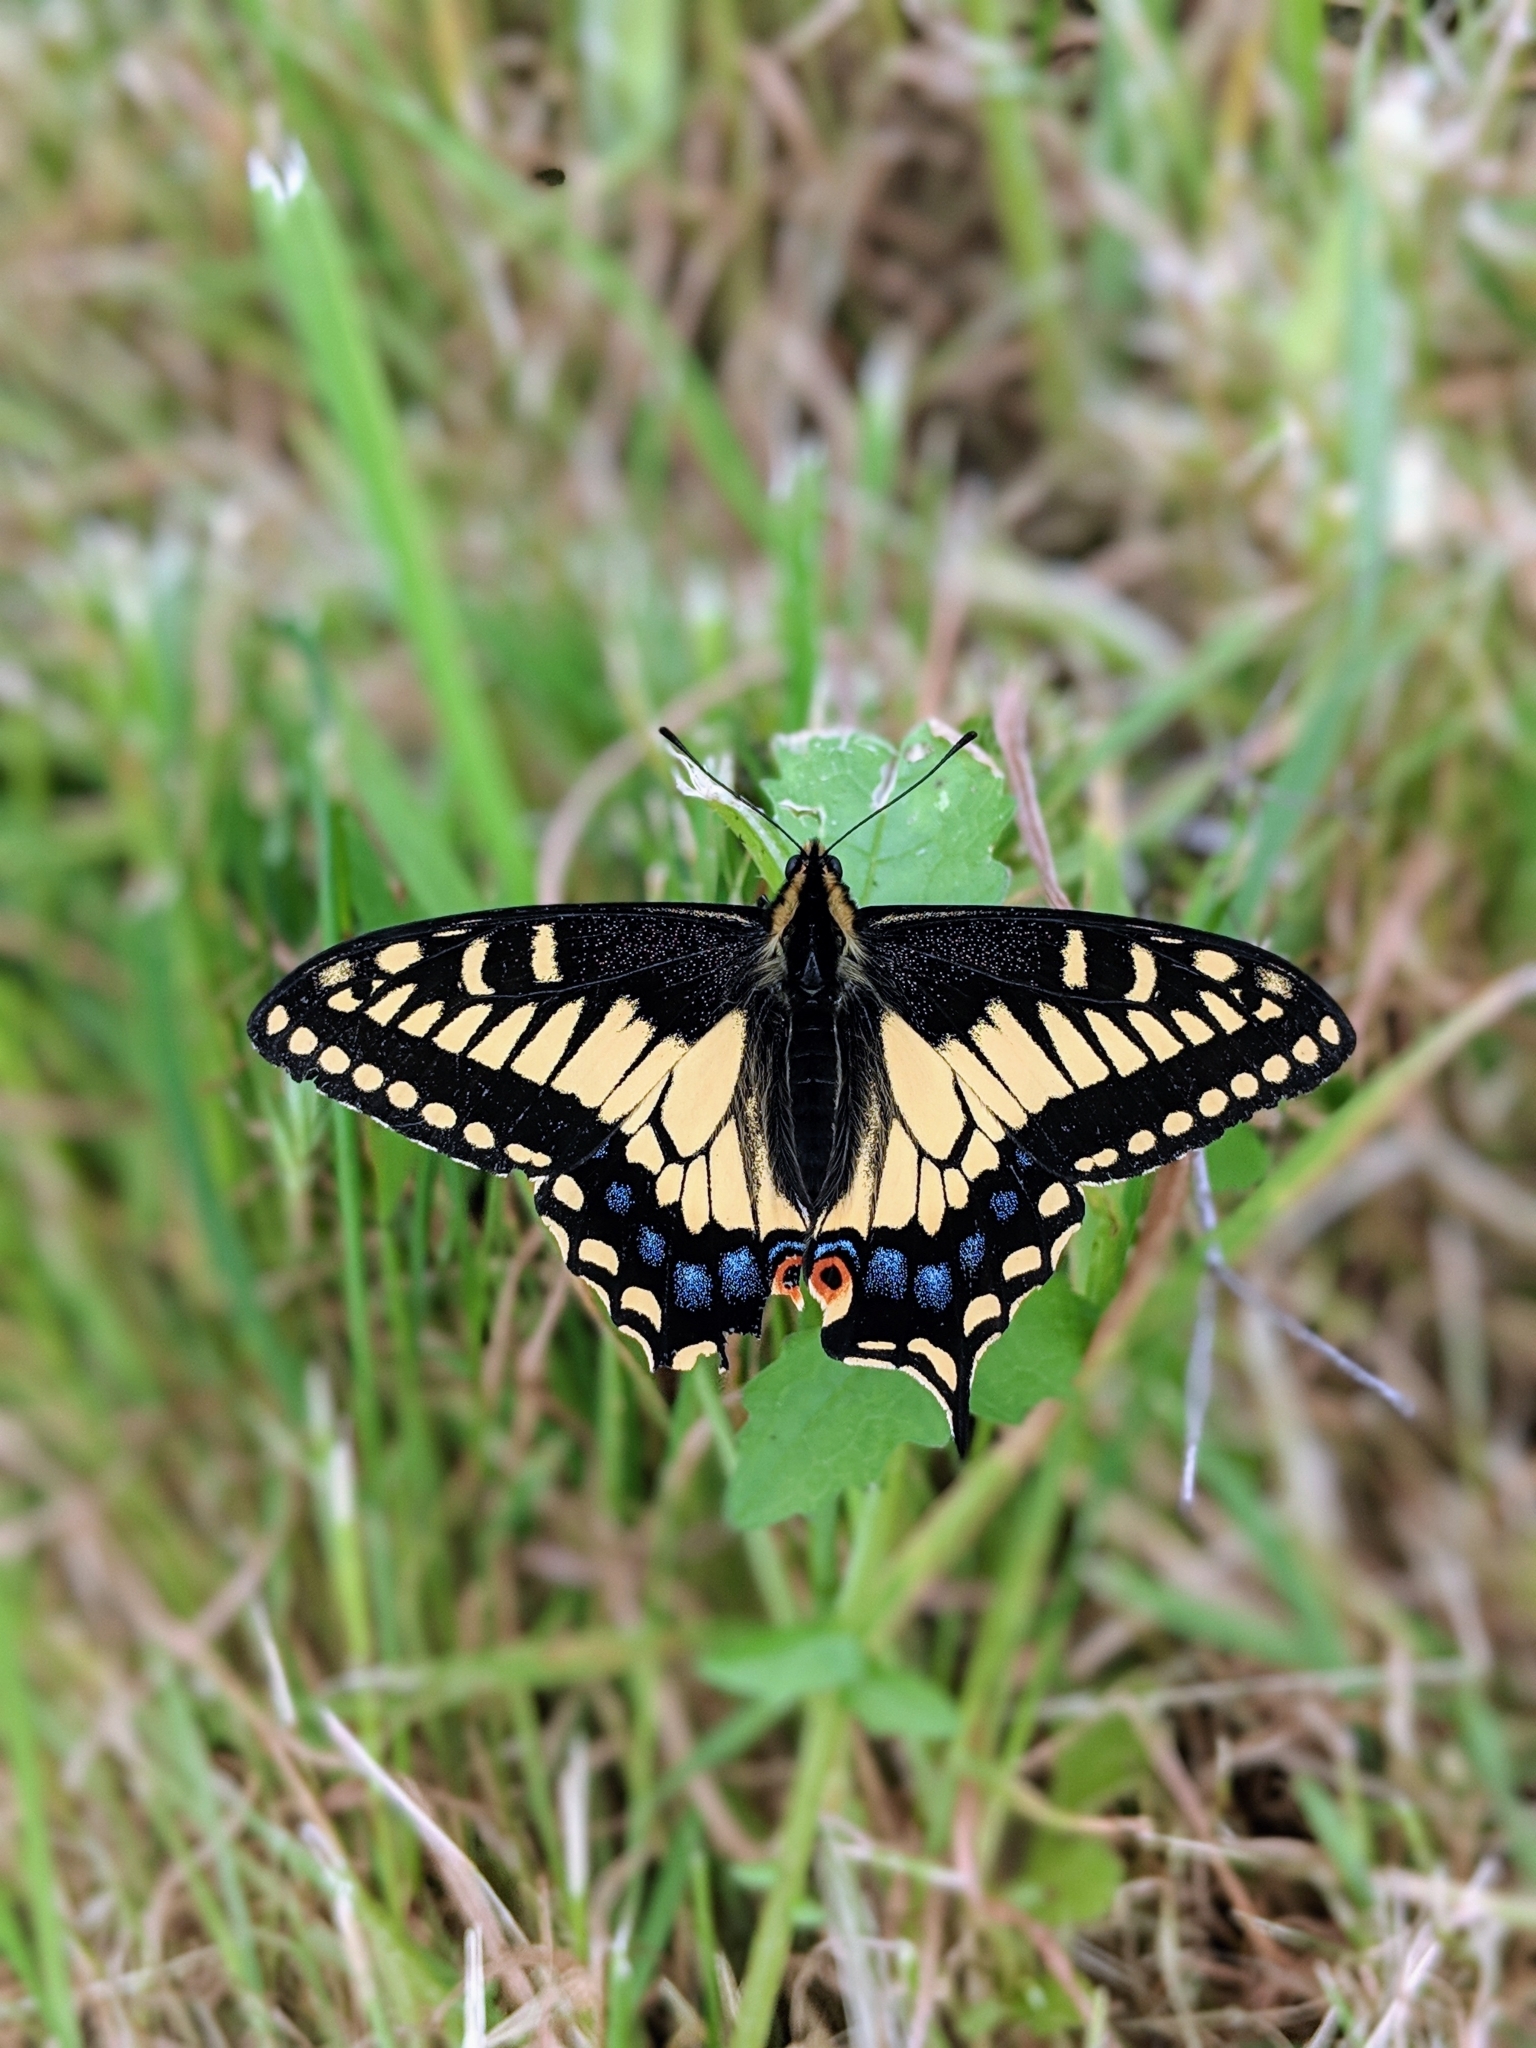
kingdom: Animalia
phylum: Arthropoda
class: Insecta
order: Lepidoptera
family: Papilionidae
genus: Papilio
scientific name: Papilio zelicaon
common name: Anise swallowtail
